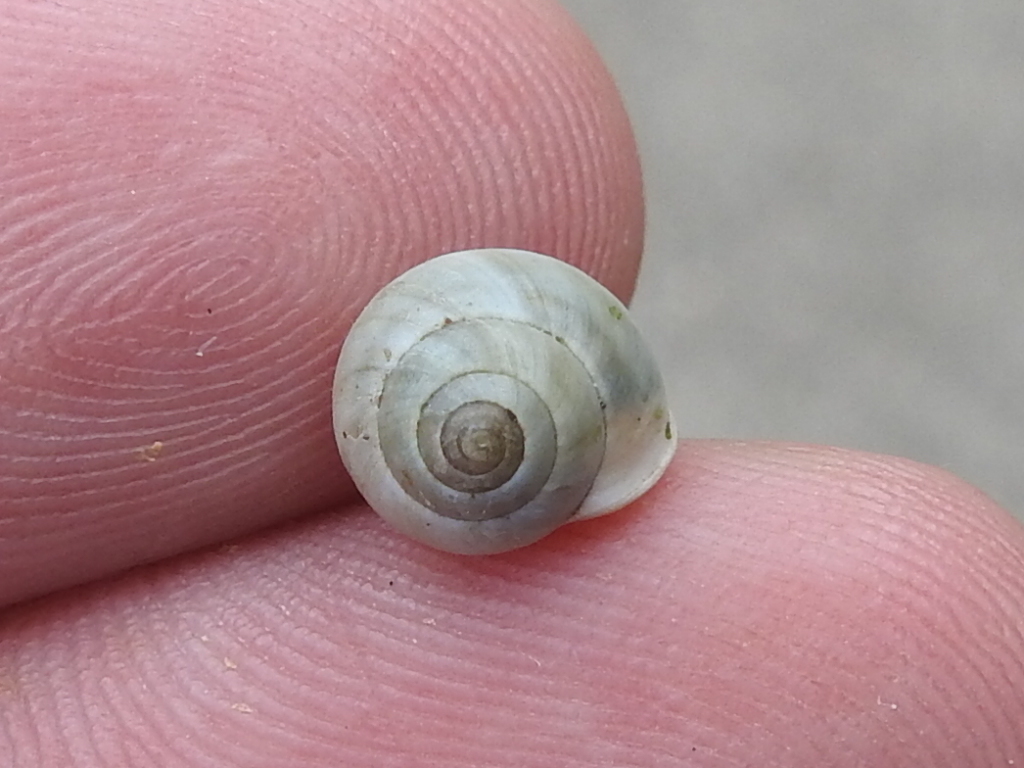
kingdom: Animalia
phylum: Mollusca
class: Gastropoda
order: Cycloneritida
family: Helicinidae
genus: Helicina
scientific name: Helicina orbiculata
